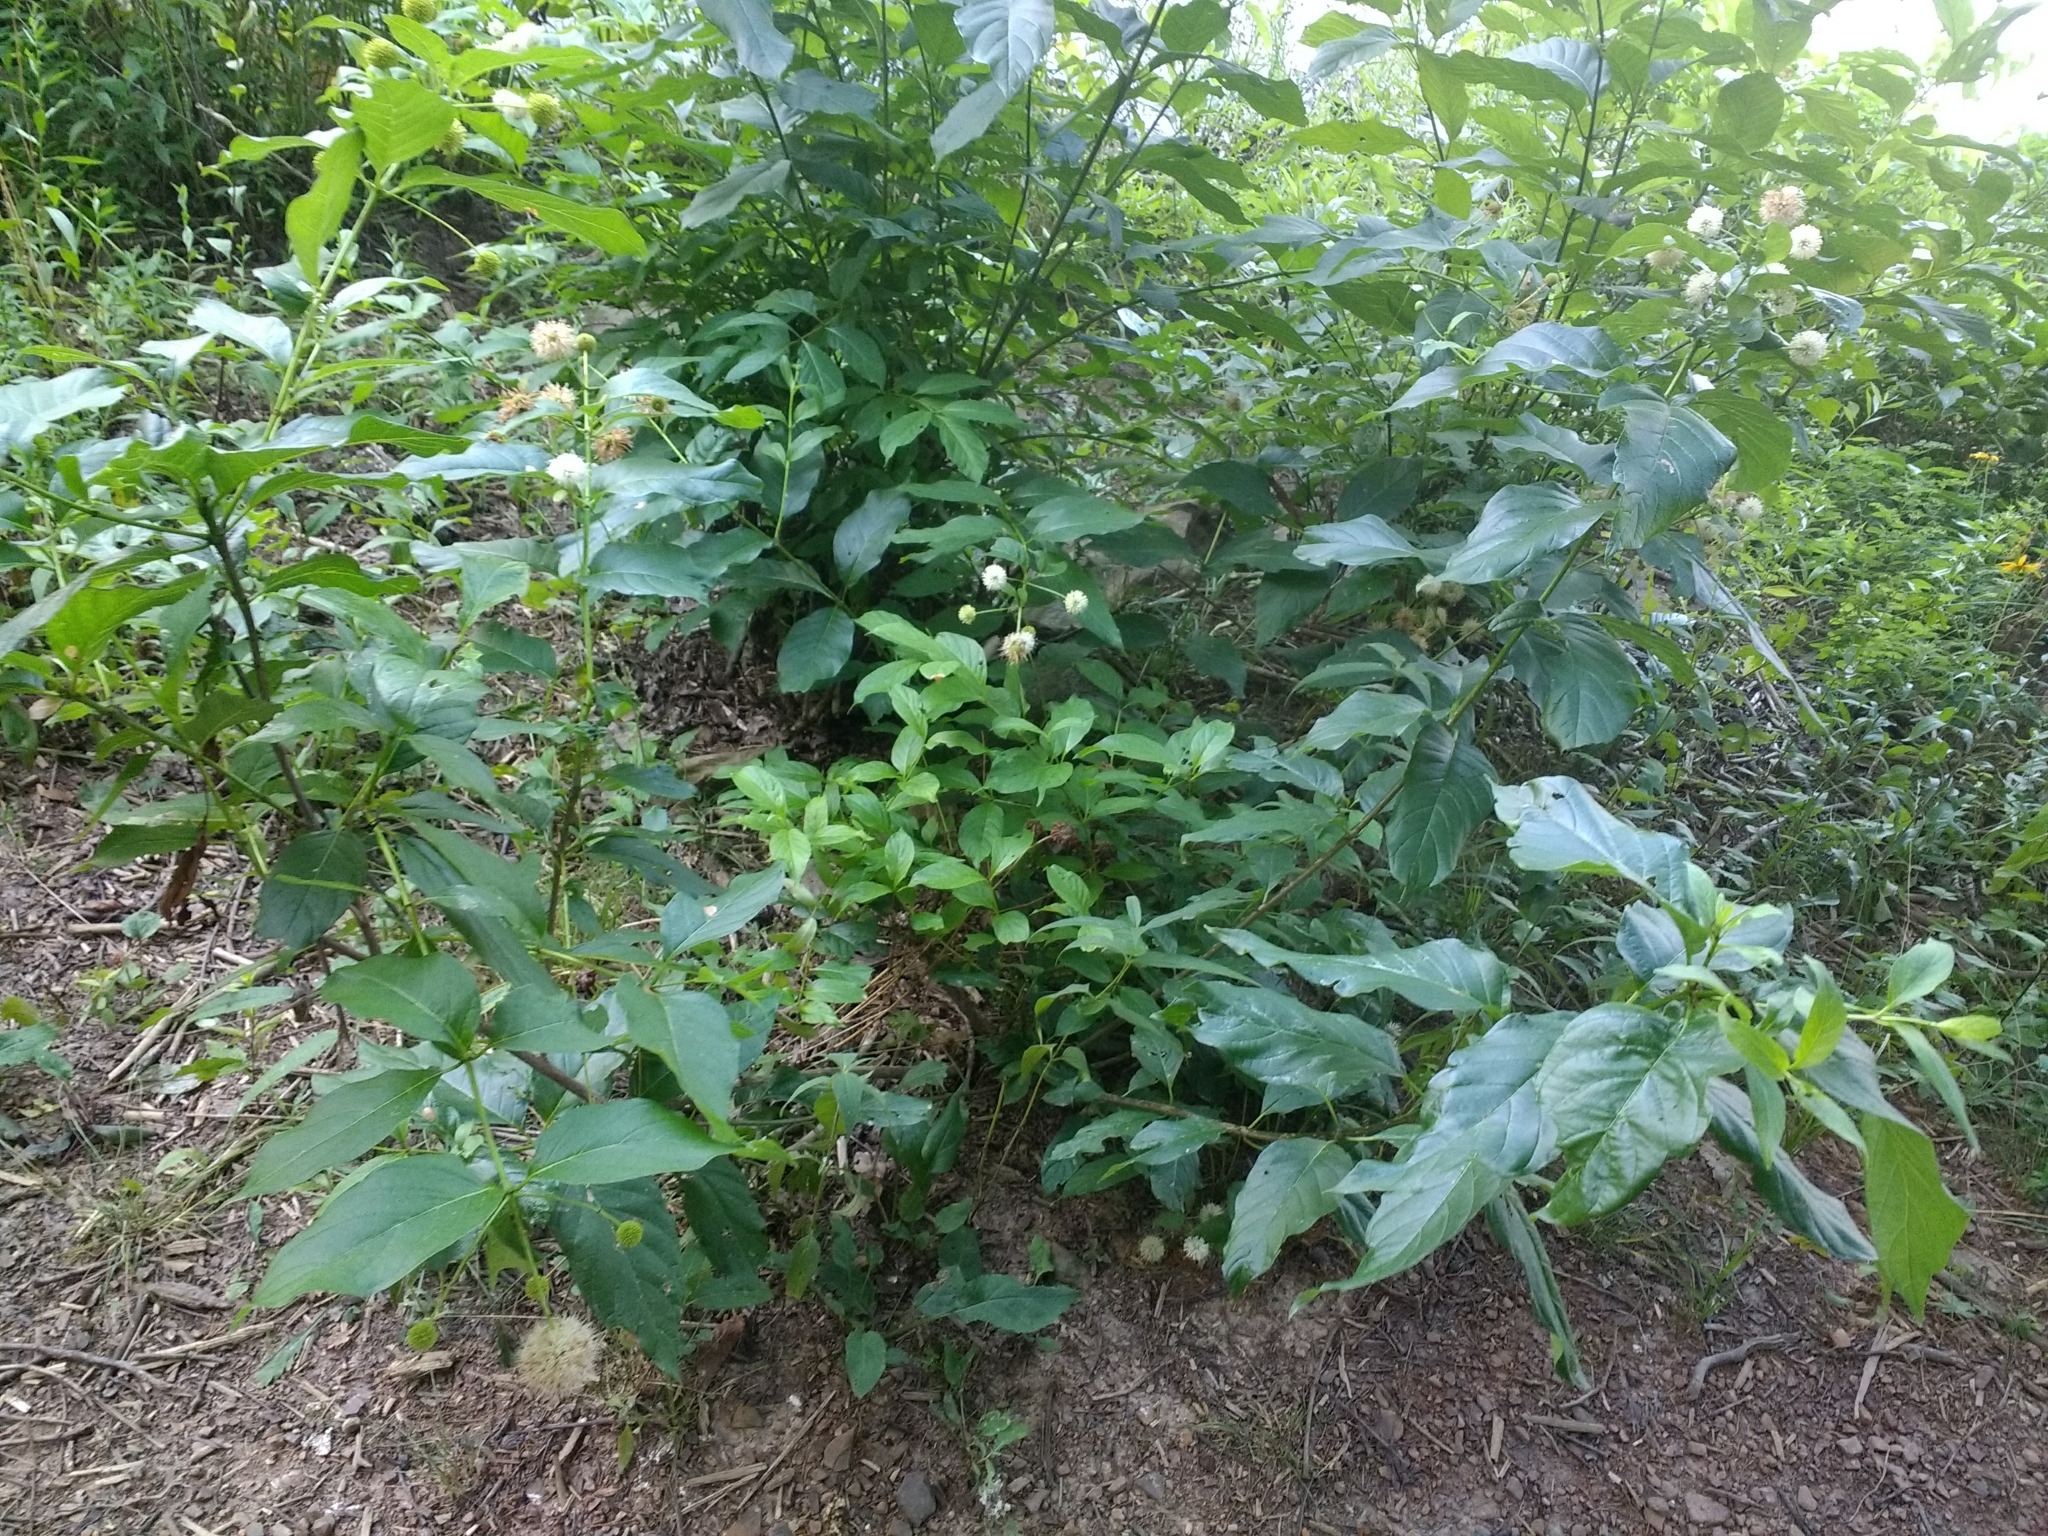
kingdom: Plantae
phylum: Tracheophyta
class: Magnoliopsida
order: Gentianales
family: Rubiaceae
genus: Cephalanthus
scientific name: Cephalanthus occidentalis
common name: Button-willow
